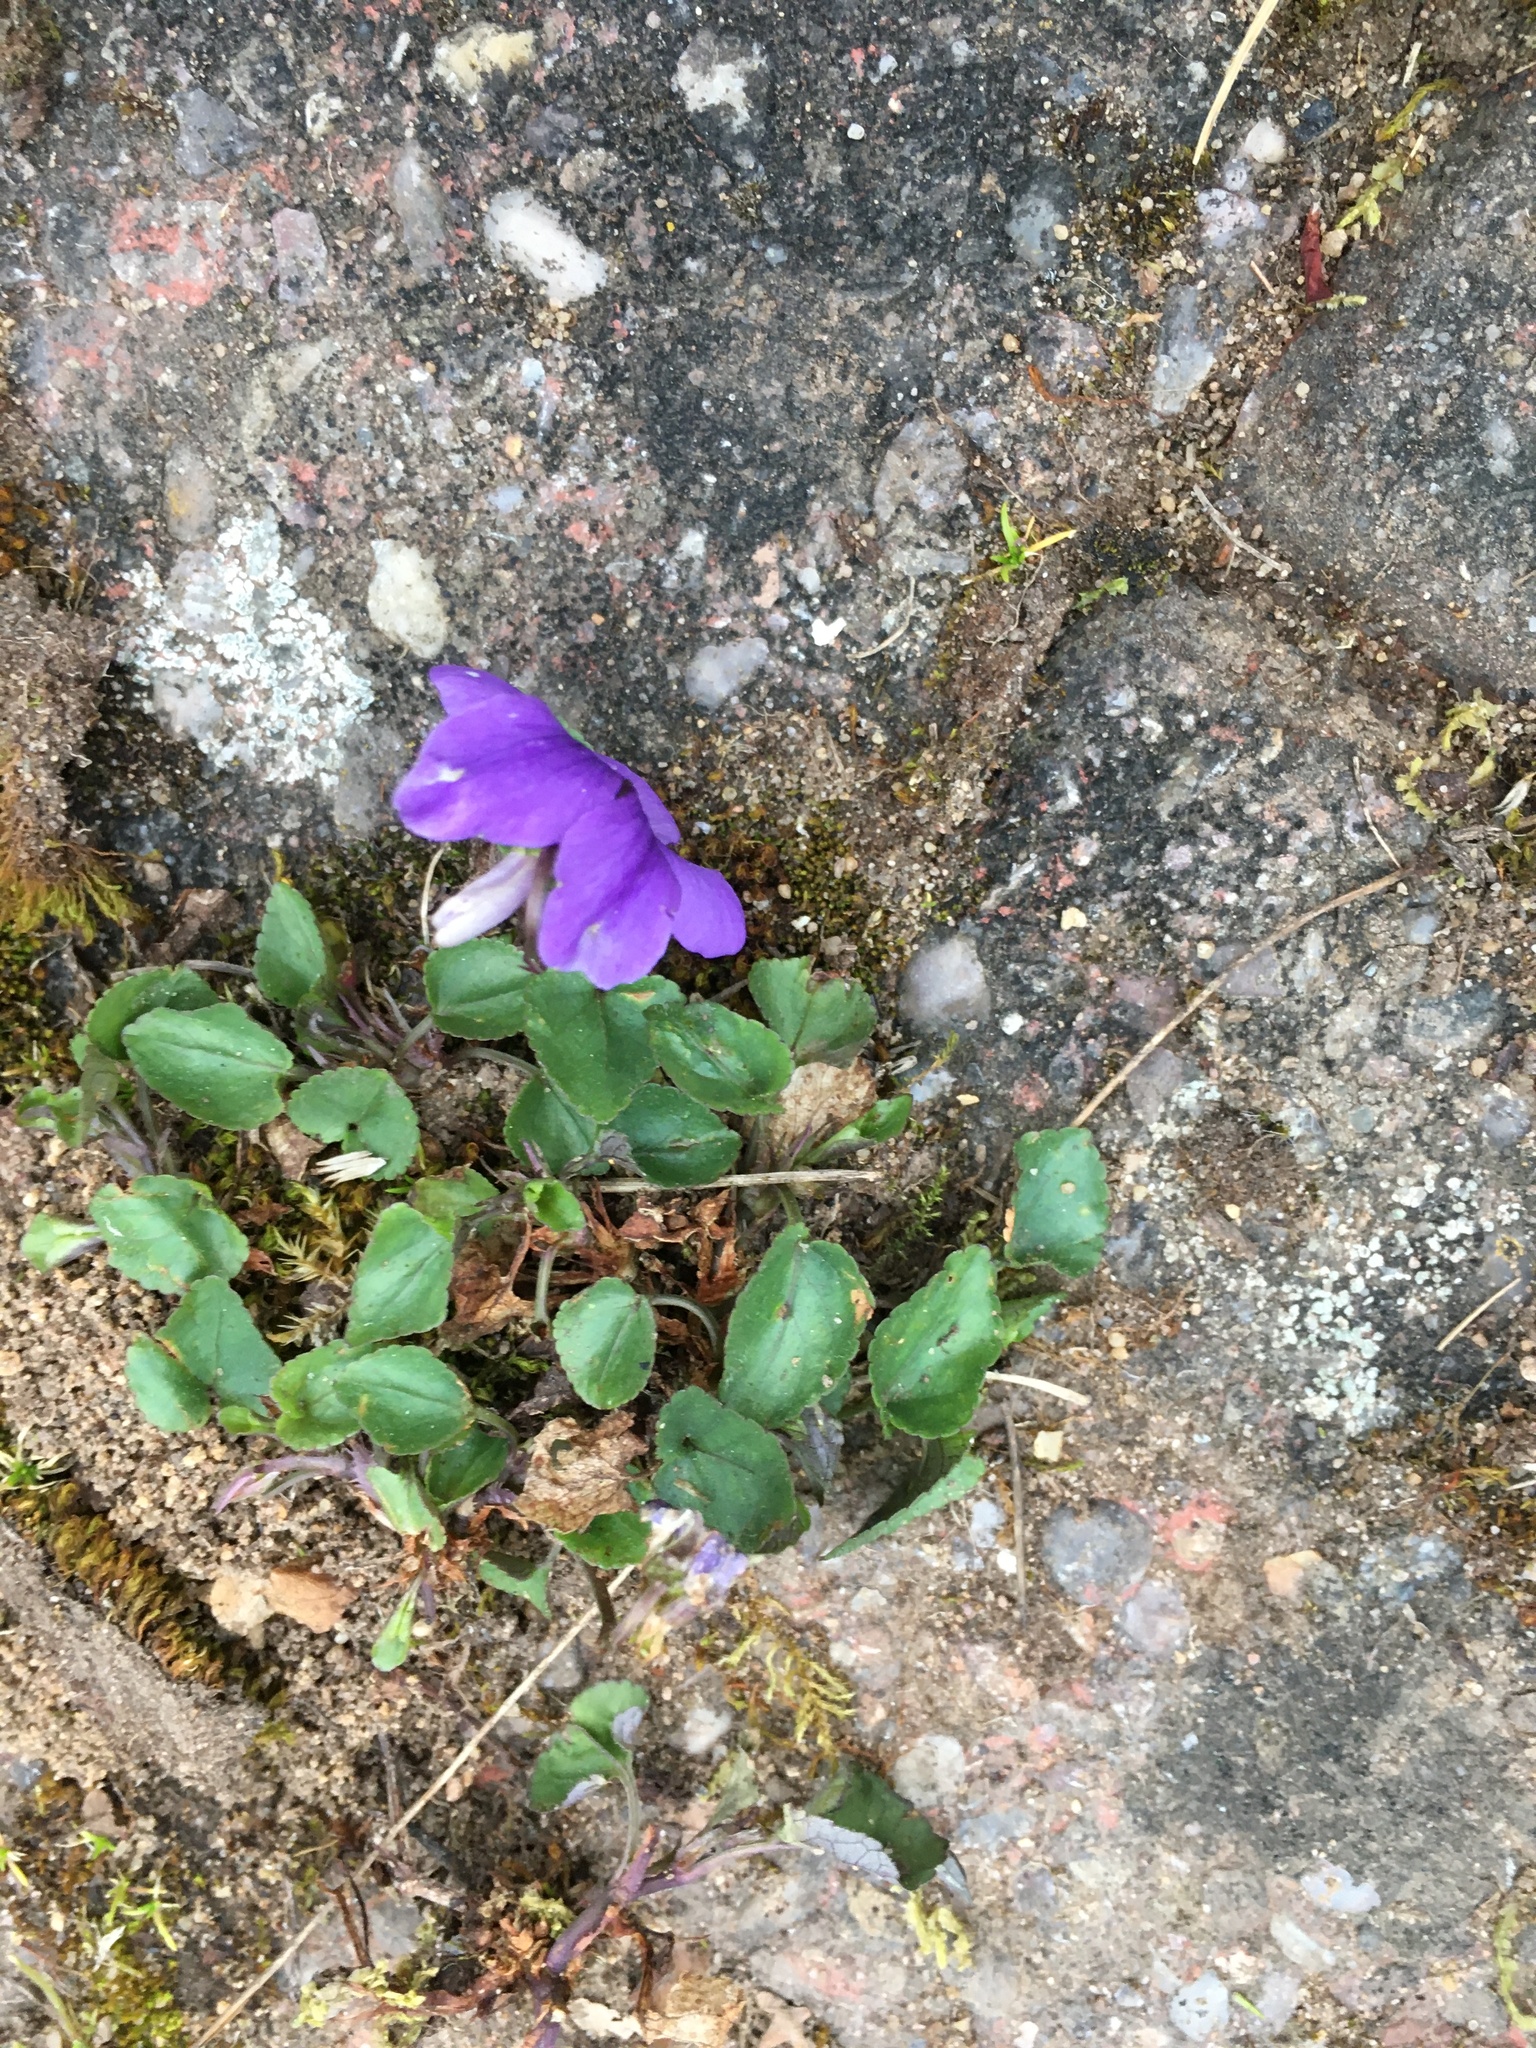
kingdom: Plantae
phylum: Tracheophyta
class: Magnoliopsida
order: Malpighiales
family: Violaceae
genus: Viola
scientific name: Viola riviniana
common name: Common dog-violet
